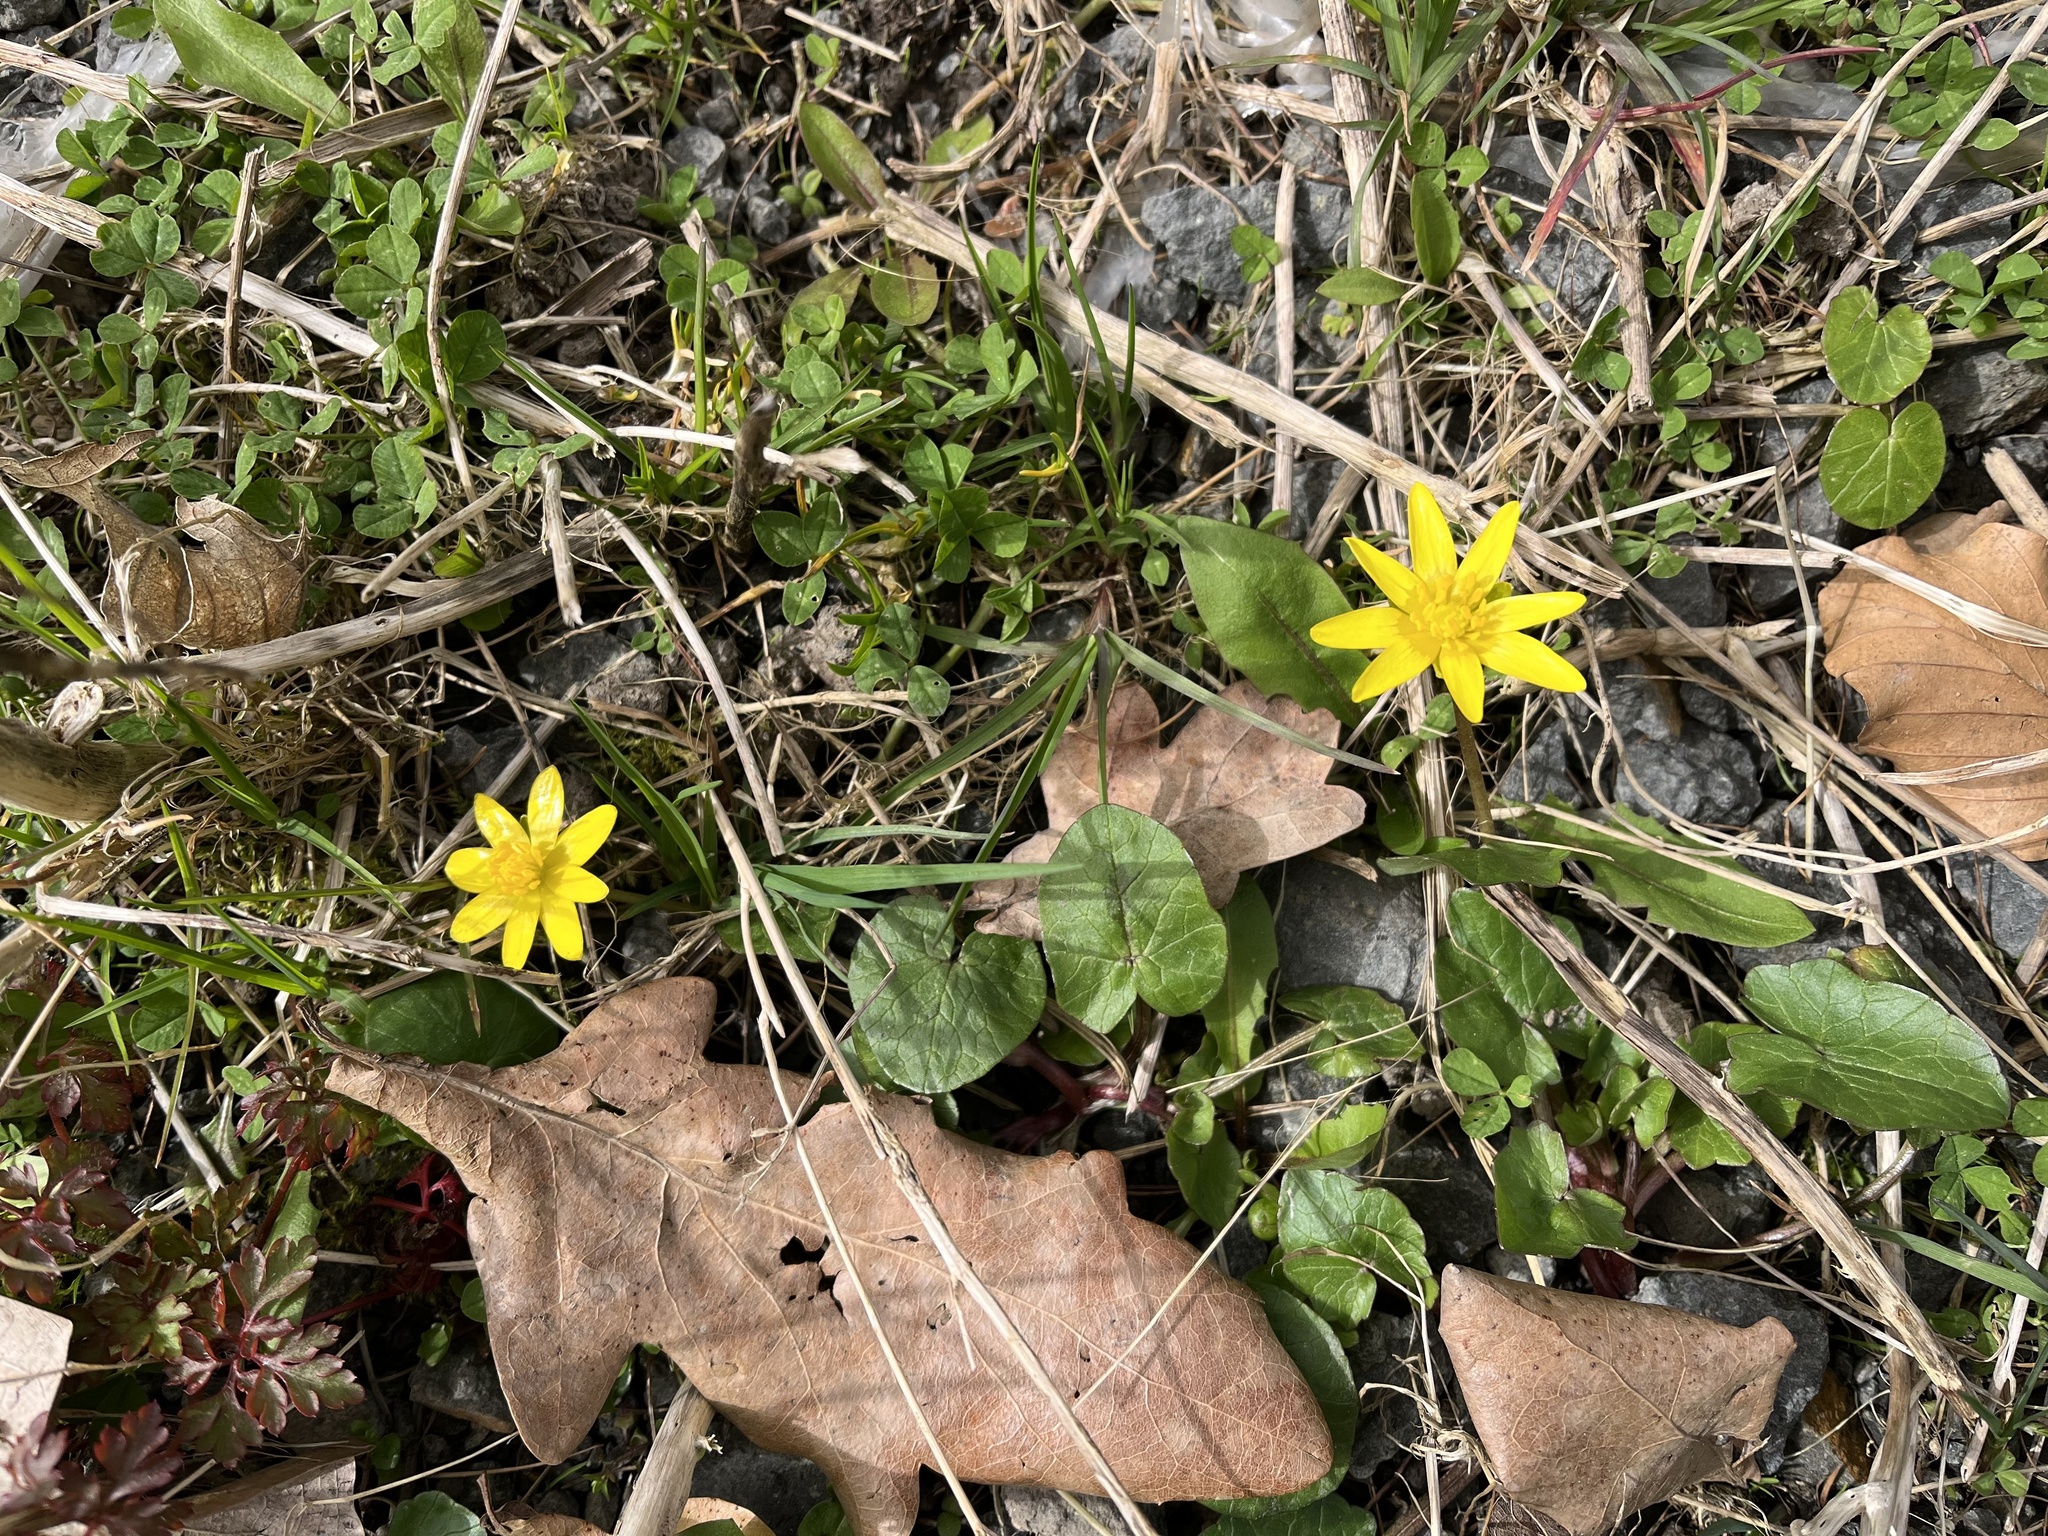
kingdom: Plantae
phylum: Tracheophyta
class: Magnoliopsida
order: Ranunculales
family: Ranunculaceae
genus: Ficaria
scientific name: Ficaria verna
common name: Lesser celandine
